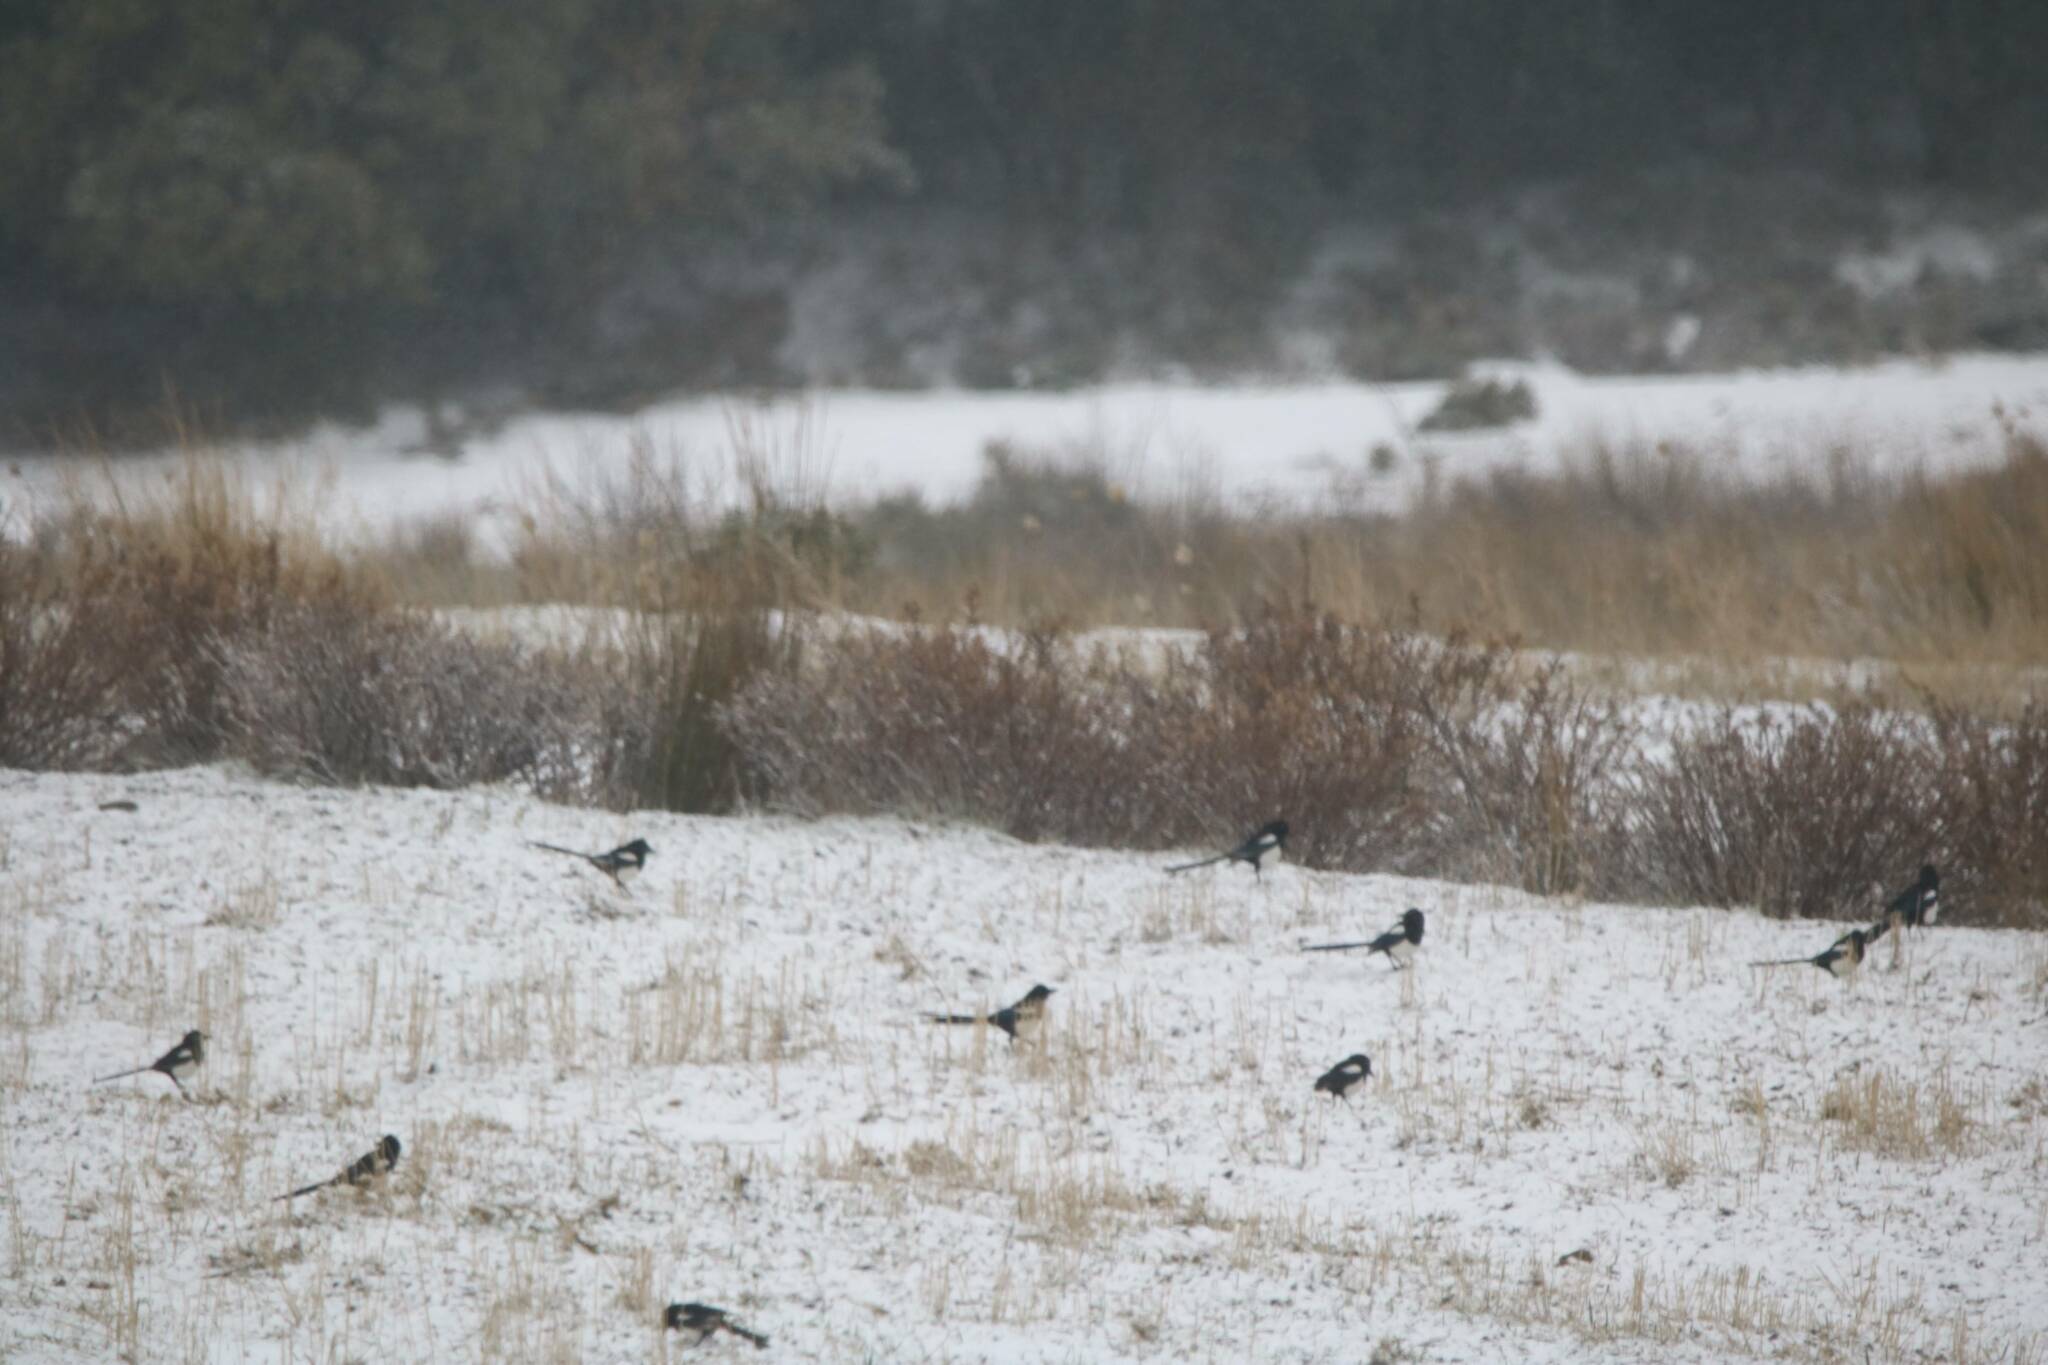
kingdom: Animalia
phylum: Chordata
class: Aves
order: Passeriformes
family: Corvidae
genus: Pica
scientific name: Pica mauritanica
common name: Maghreb magpie
